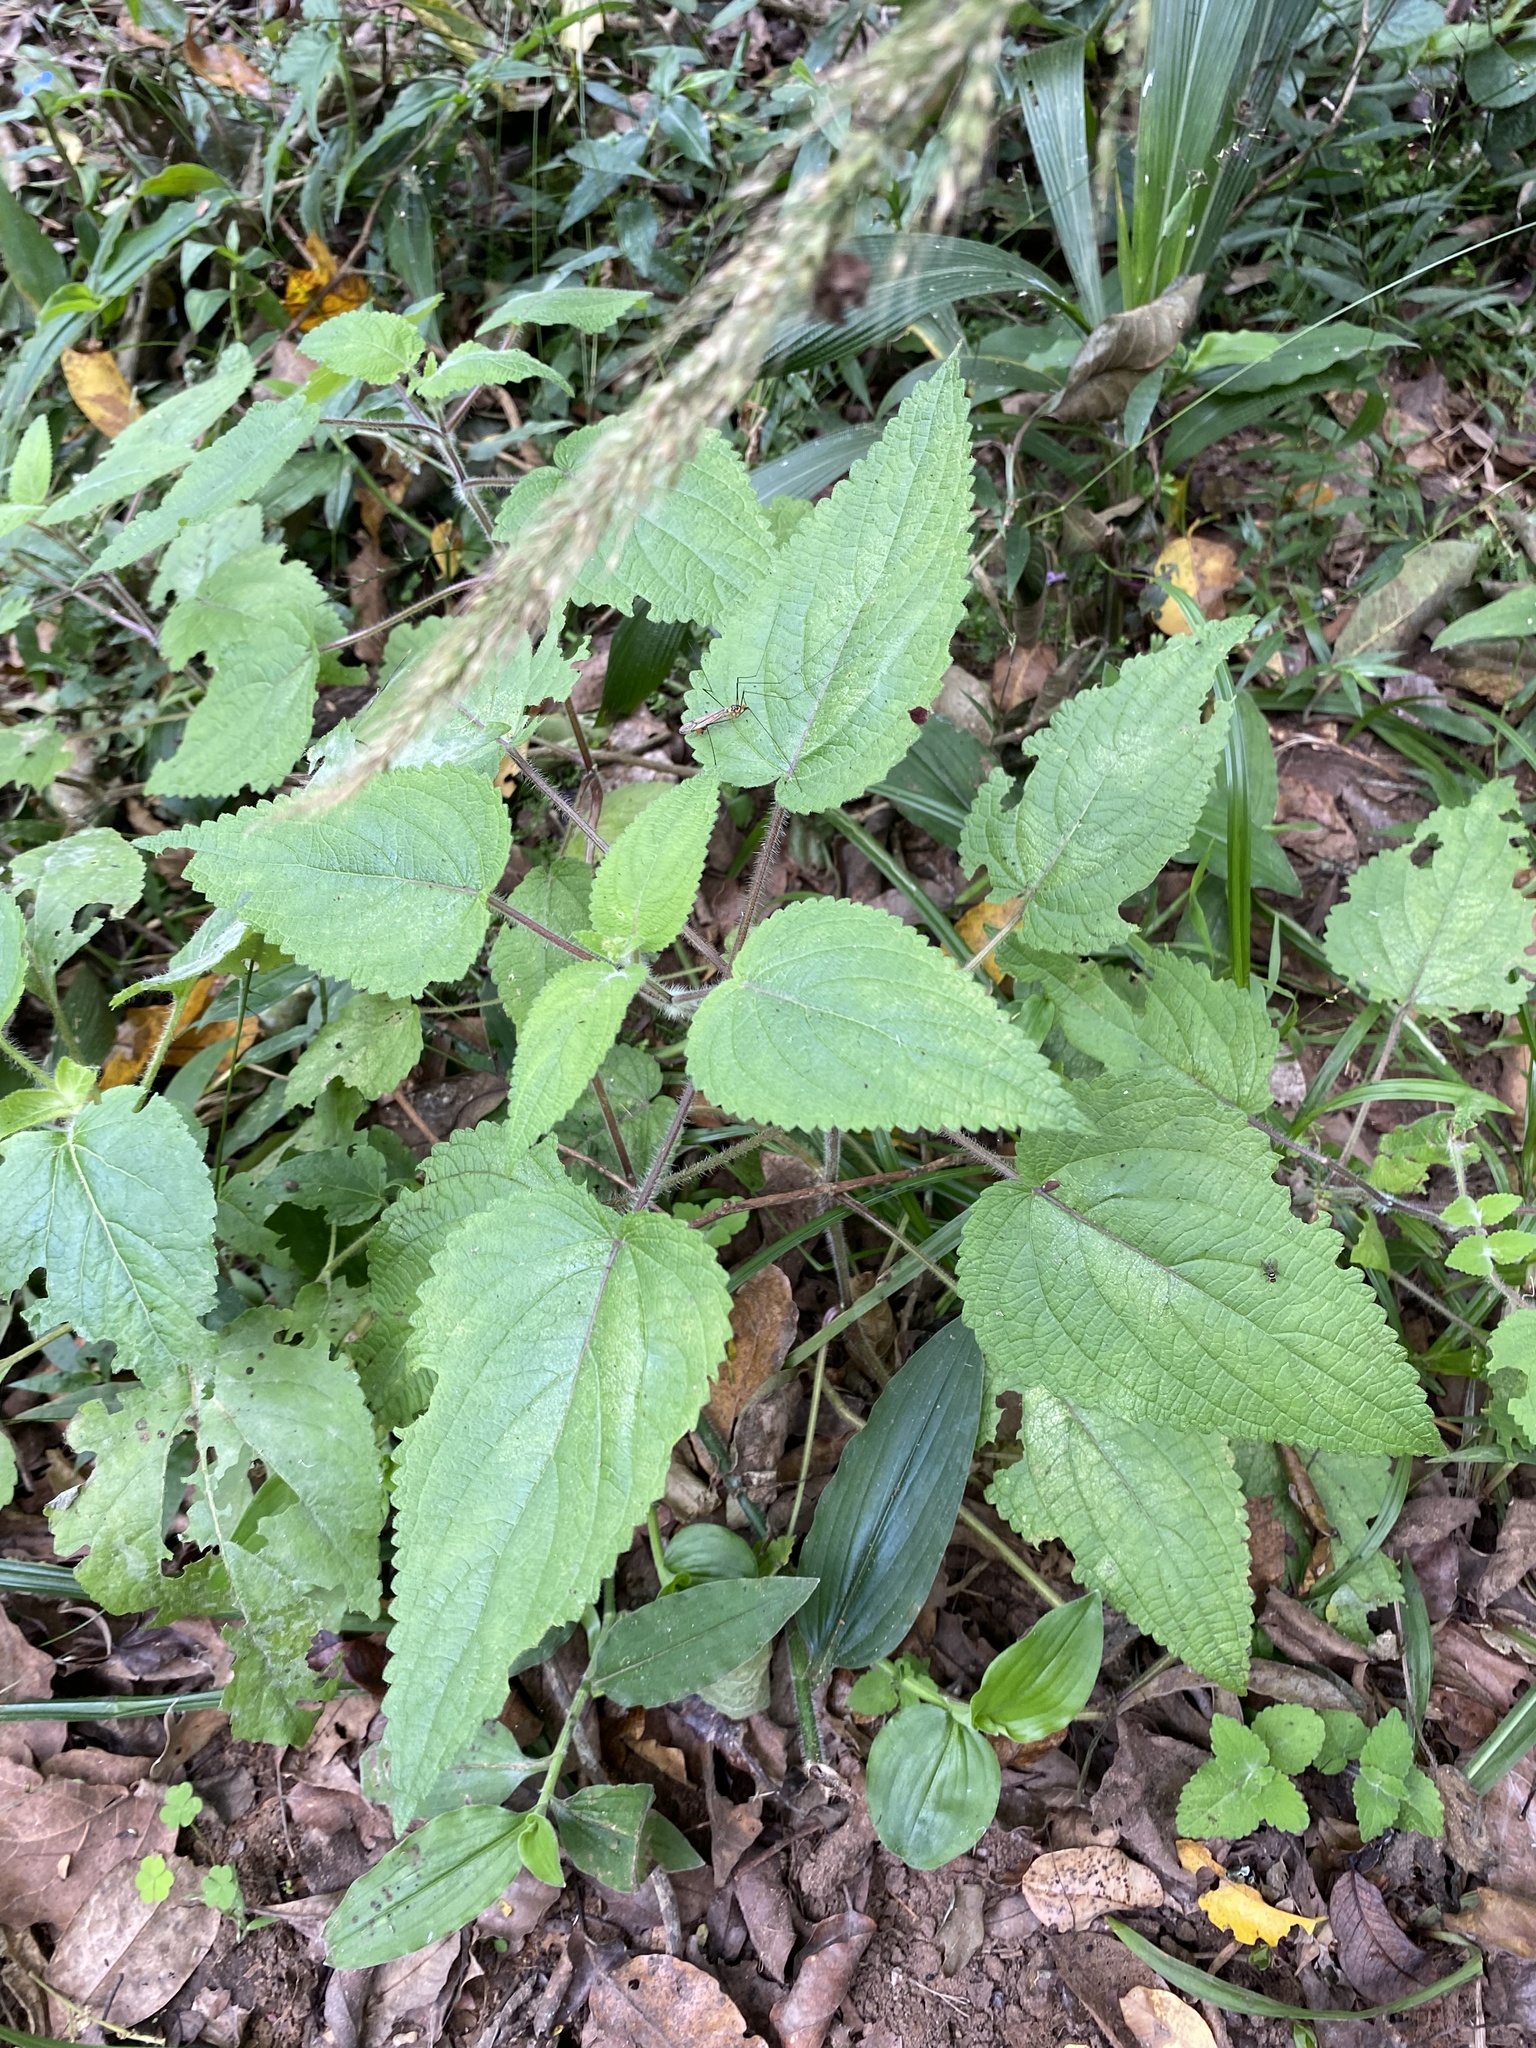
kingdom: Plantae
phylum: Tracheophyta
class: Magnoliopsida
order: Lamiales
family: Lamiaceae
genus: Equilabium
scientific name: Equilabium laxiflorum
